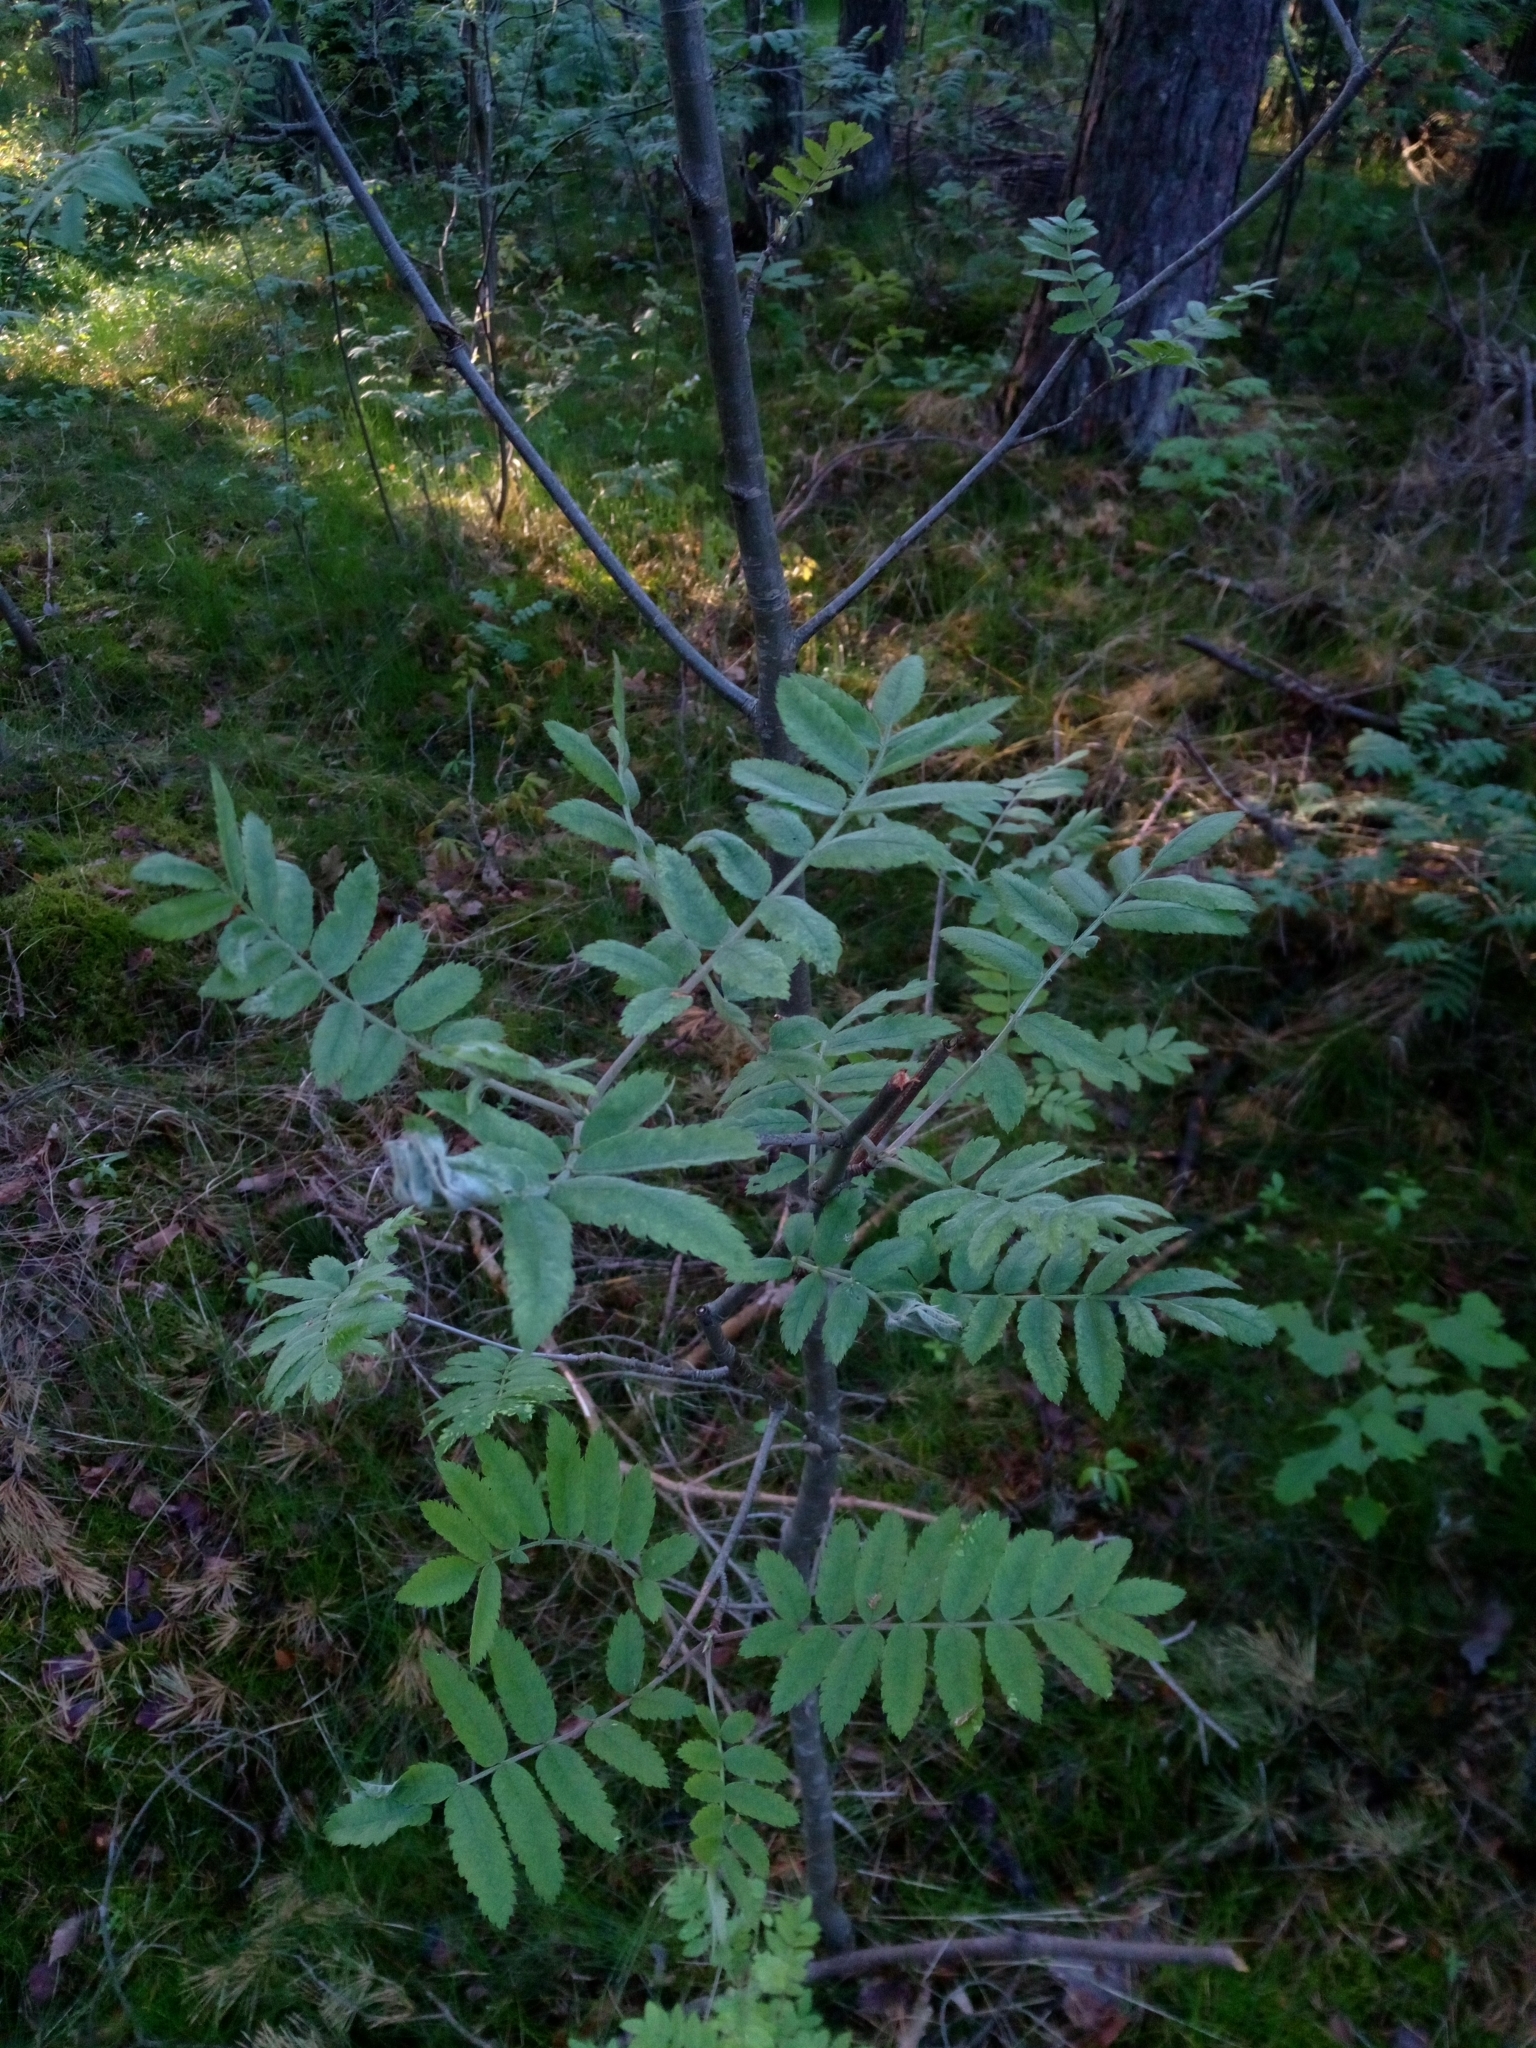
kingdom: Plantae
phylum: Tracheophyta
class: Magnoliopsida
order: Rosales
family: Rosaceae
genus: Sorbus
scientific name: Sorbus aucuparia
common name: Rowan
